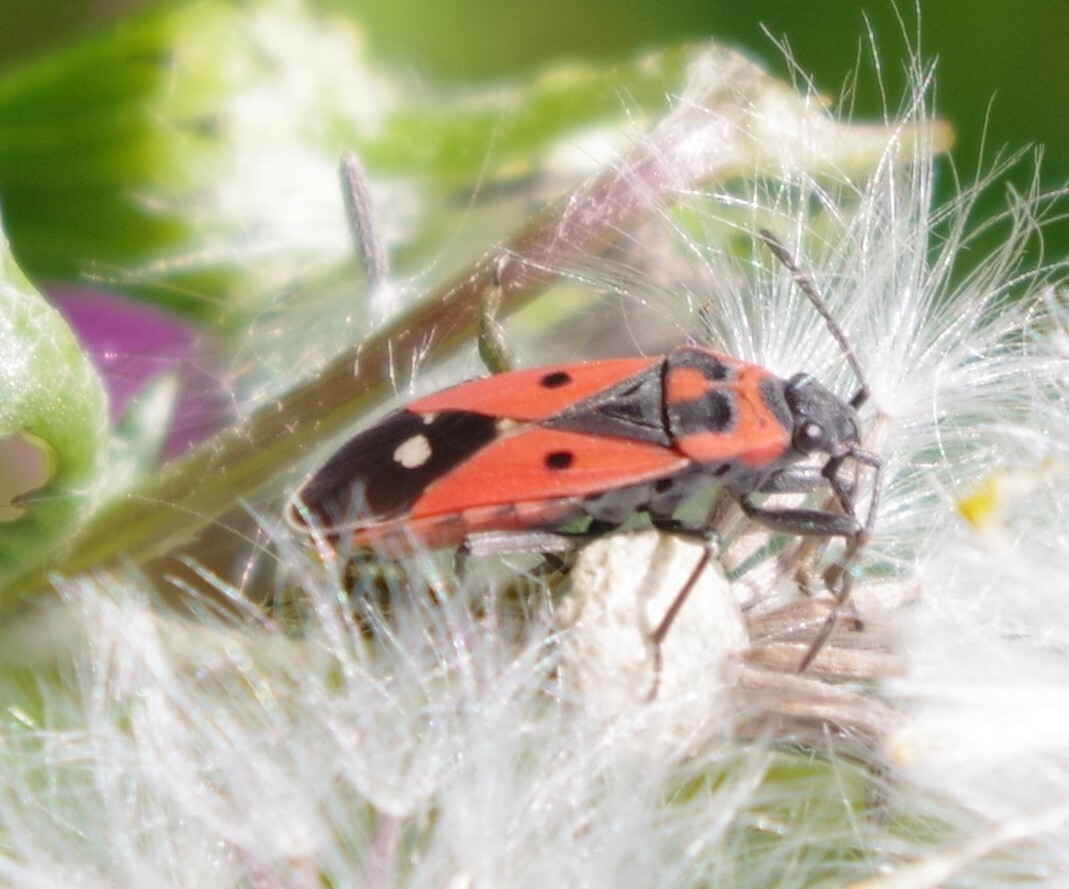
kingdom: Animalia
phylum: Arthropoda
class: Insecta
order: Hemiptera
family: Lygaeidae
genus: Melanocoryphus
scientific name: Melanocoryphus albomaculatus
